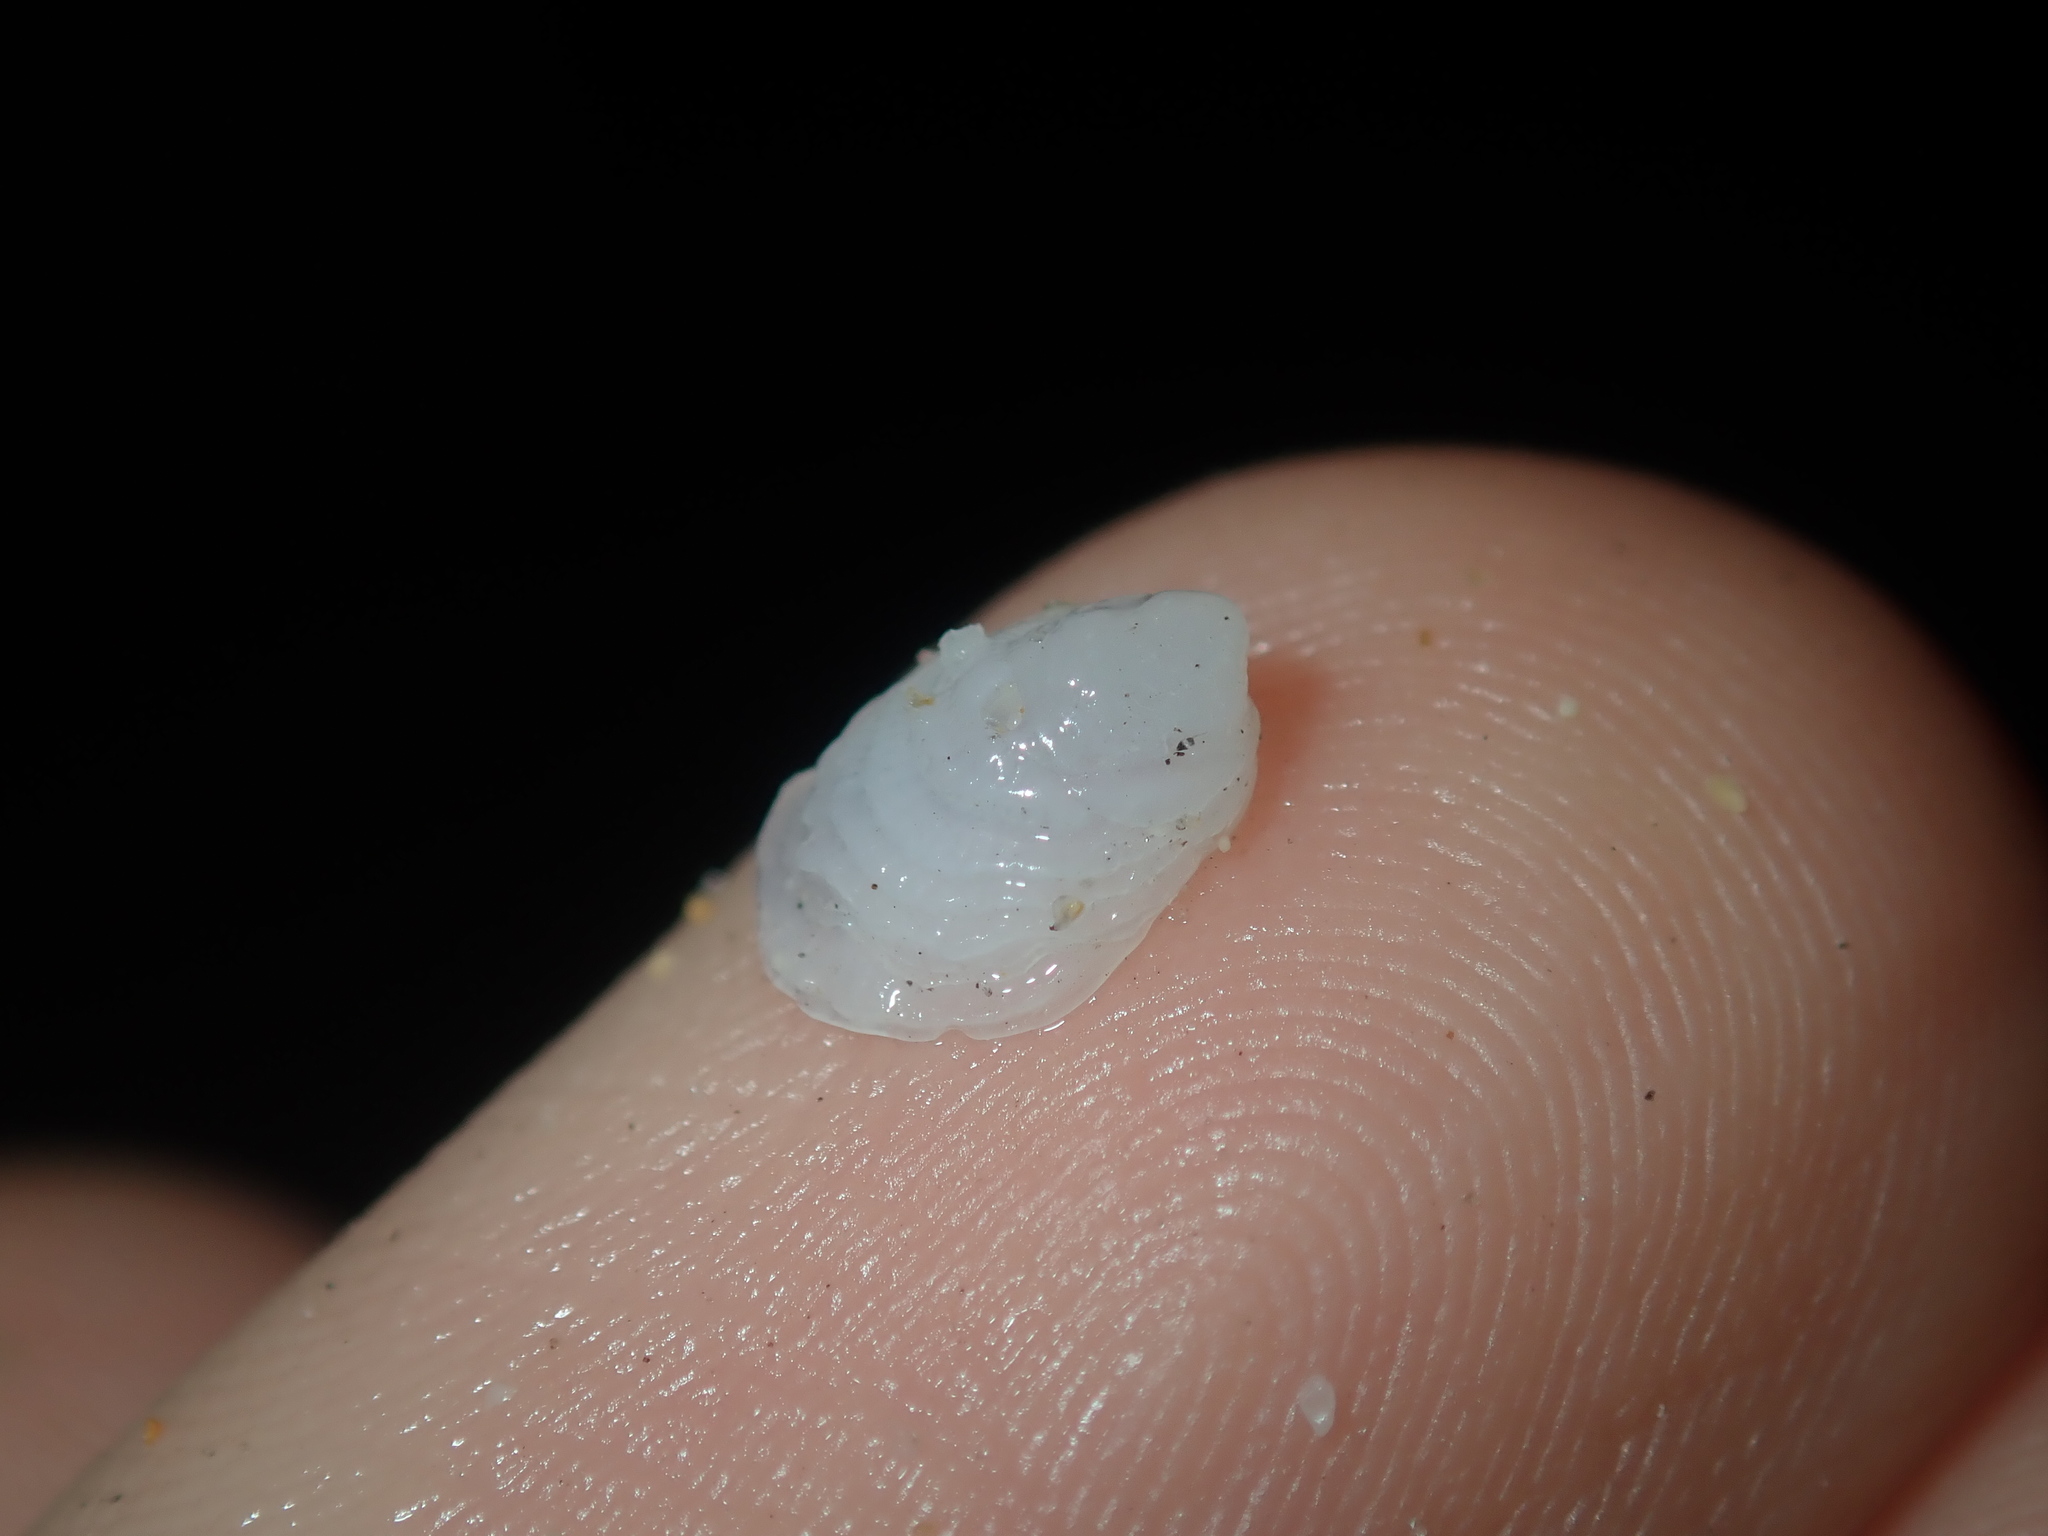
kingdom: Animalia
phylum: Mollusca
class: Gastropoda
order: Littorinimorpha
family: Hipponicidae
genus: Antisabia
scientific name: Antisabia foliacea
